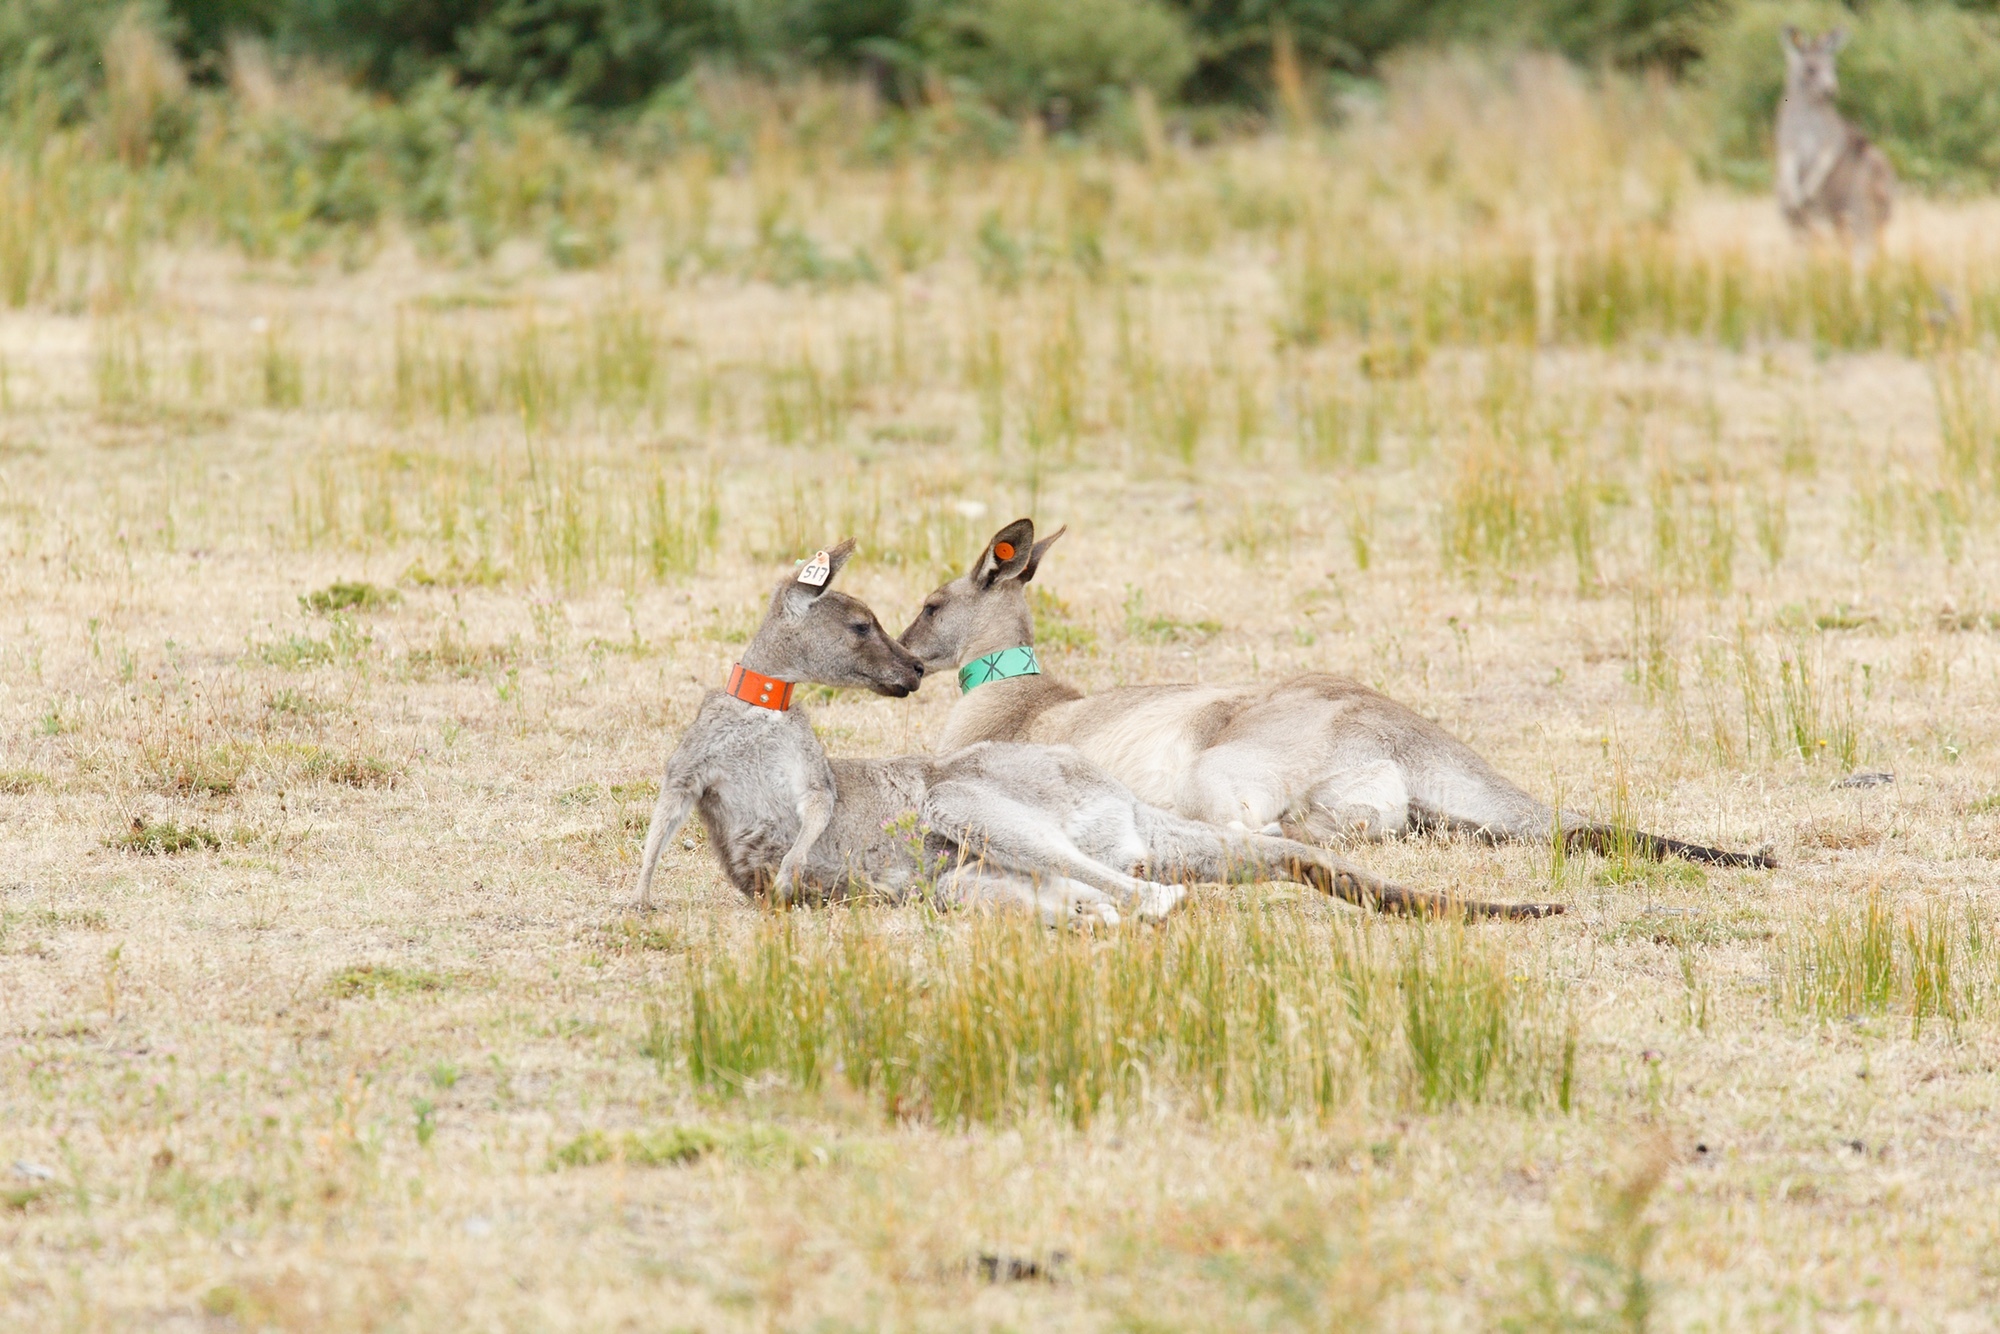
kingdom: Animalia
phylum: Chordata
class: Mammalia
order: Diprotodontia
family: Macropodidae
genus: Macropus
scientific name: Macropus giganteus
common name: Eastern grey kangaroo
